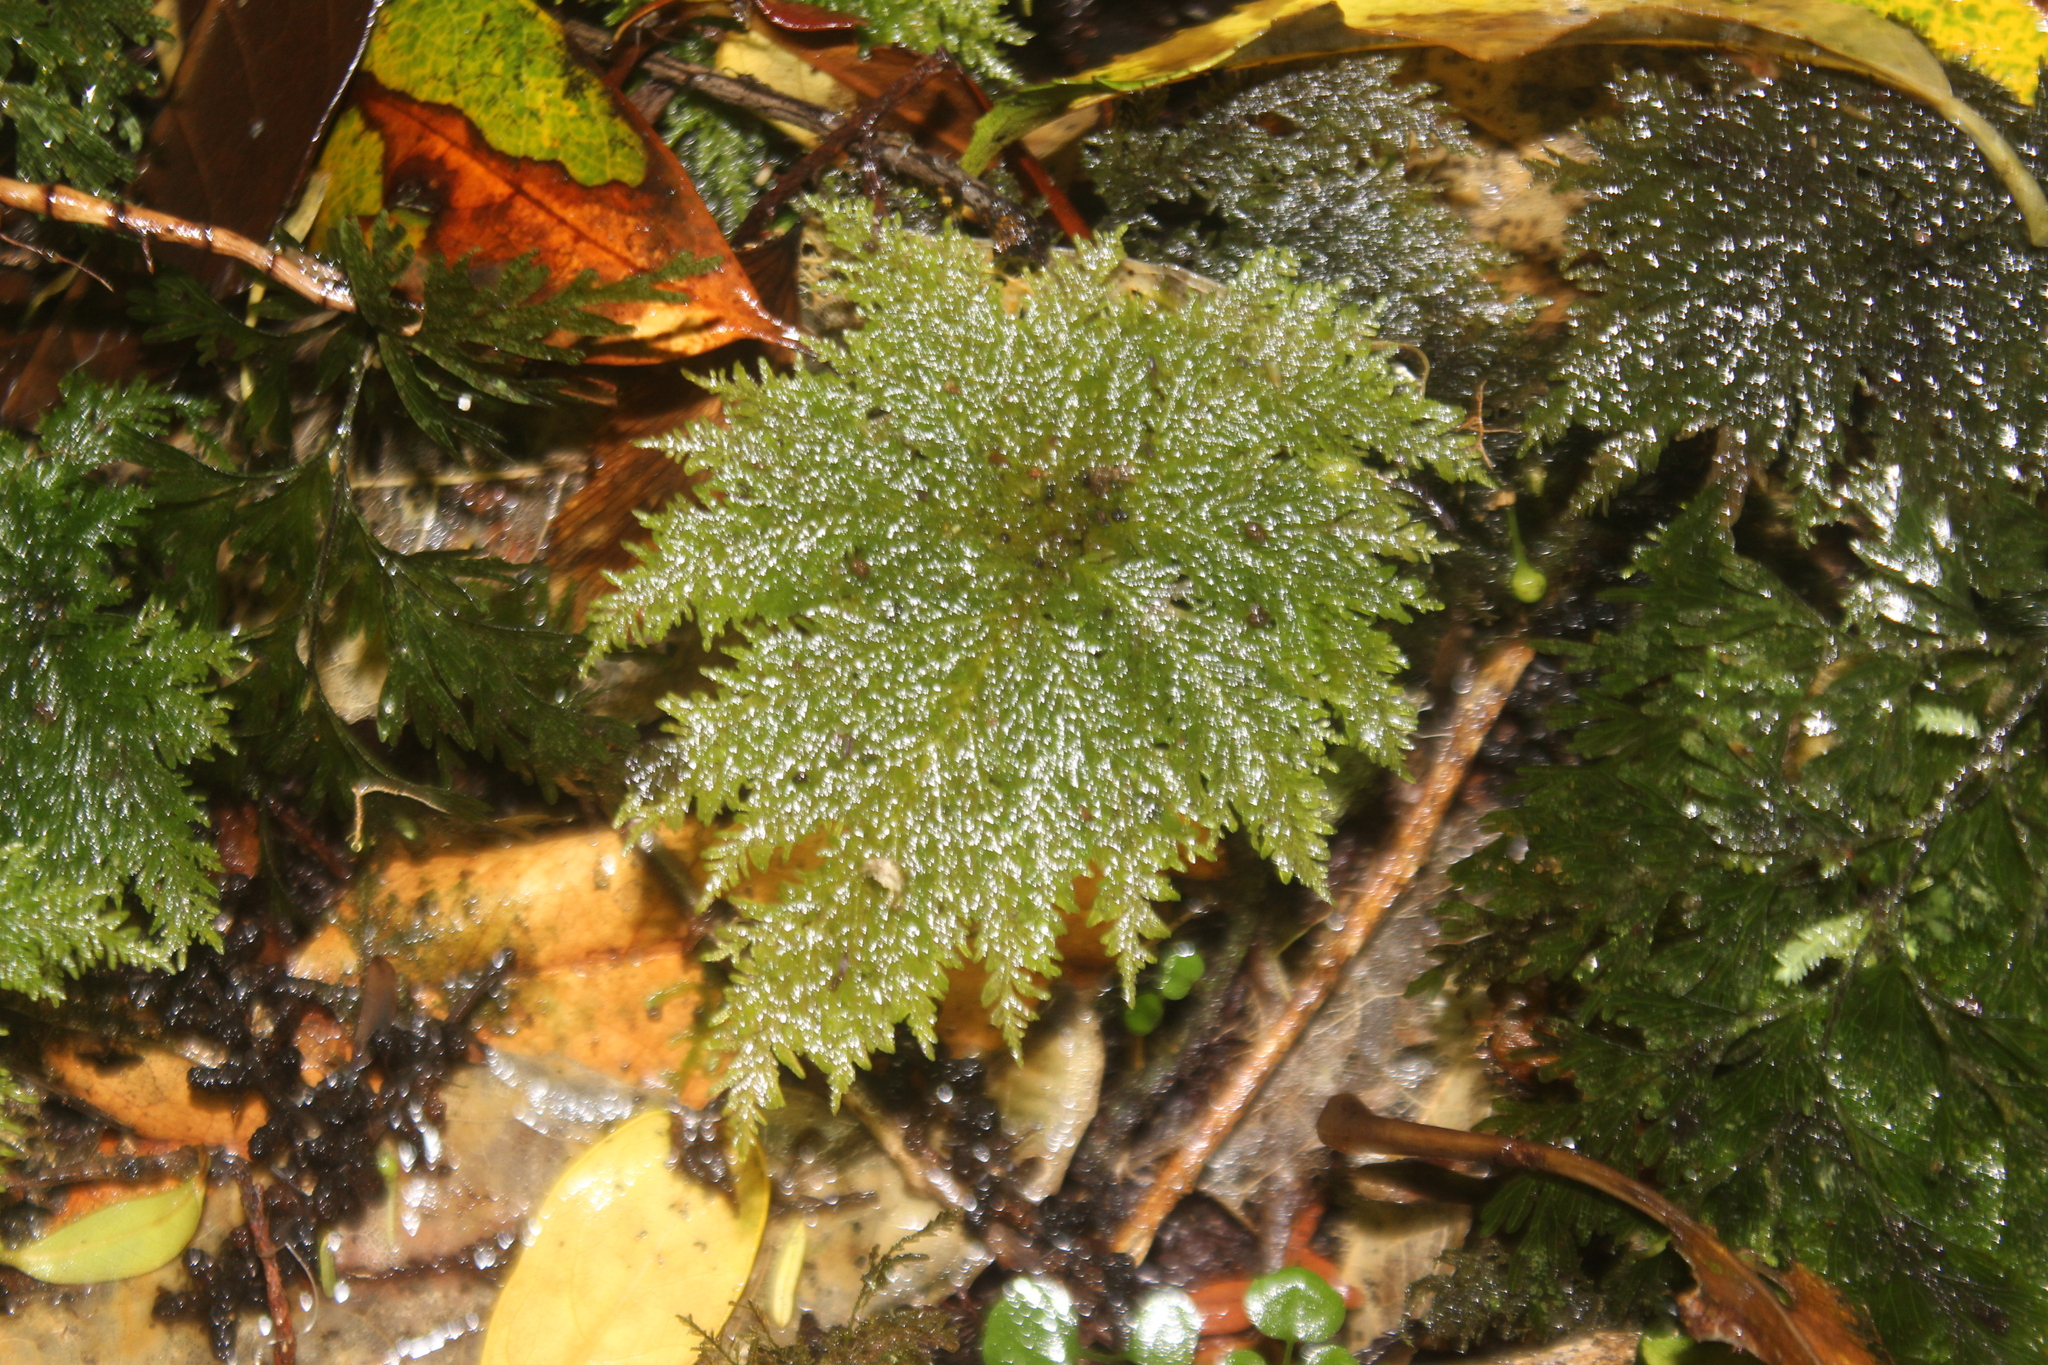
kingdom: Plantae
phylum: Bryophyta
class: Bryopsida
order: Hypopterygiales
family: Hypopterygiaceae
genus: Dendrohypopterygium
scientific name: Dendrohypopterygium filiculiforme
